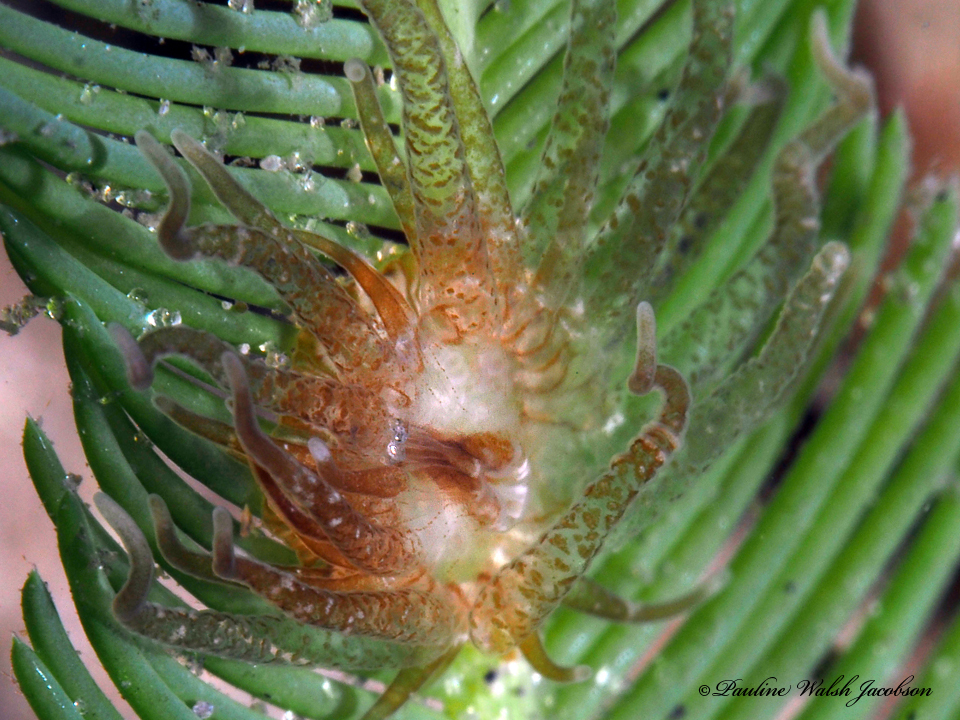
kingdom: Animalia
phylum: Cnidaria
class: Anthozoa
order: Actiniaria
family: Boloceroididae
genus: Bunodeopsis
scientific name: Bunodeopsis globulifera
